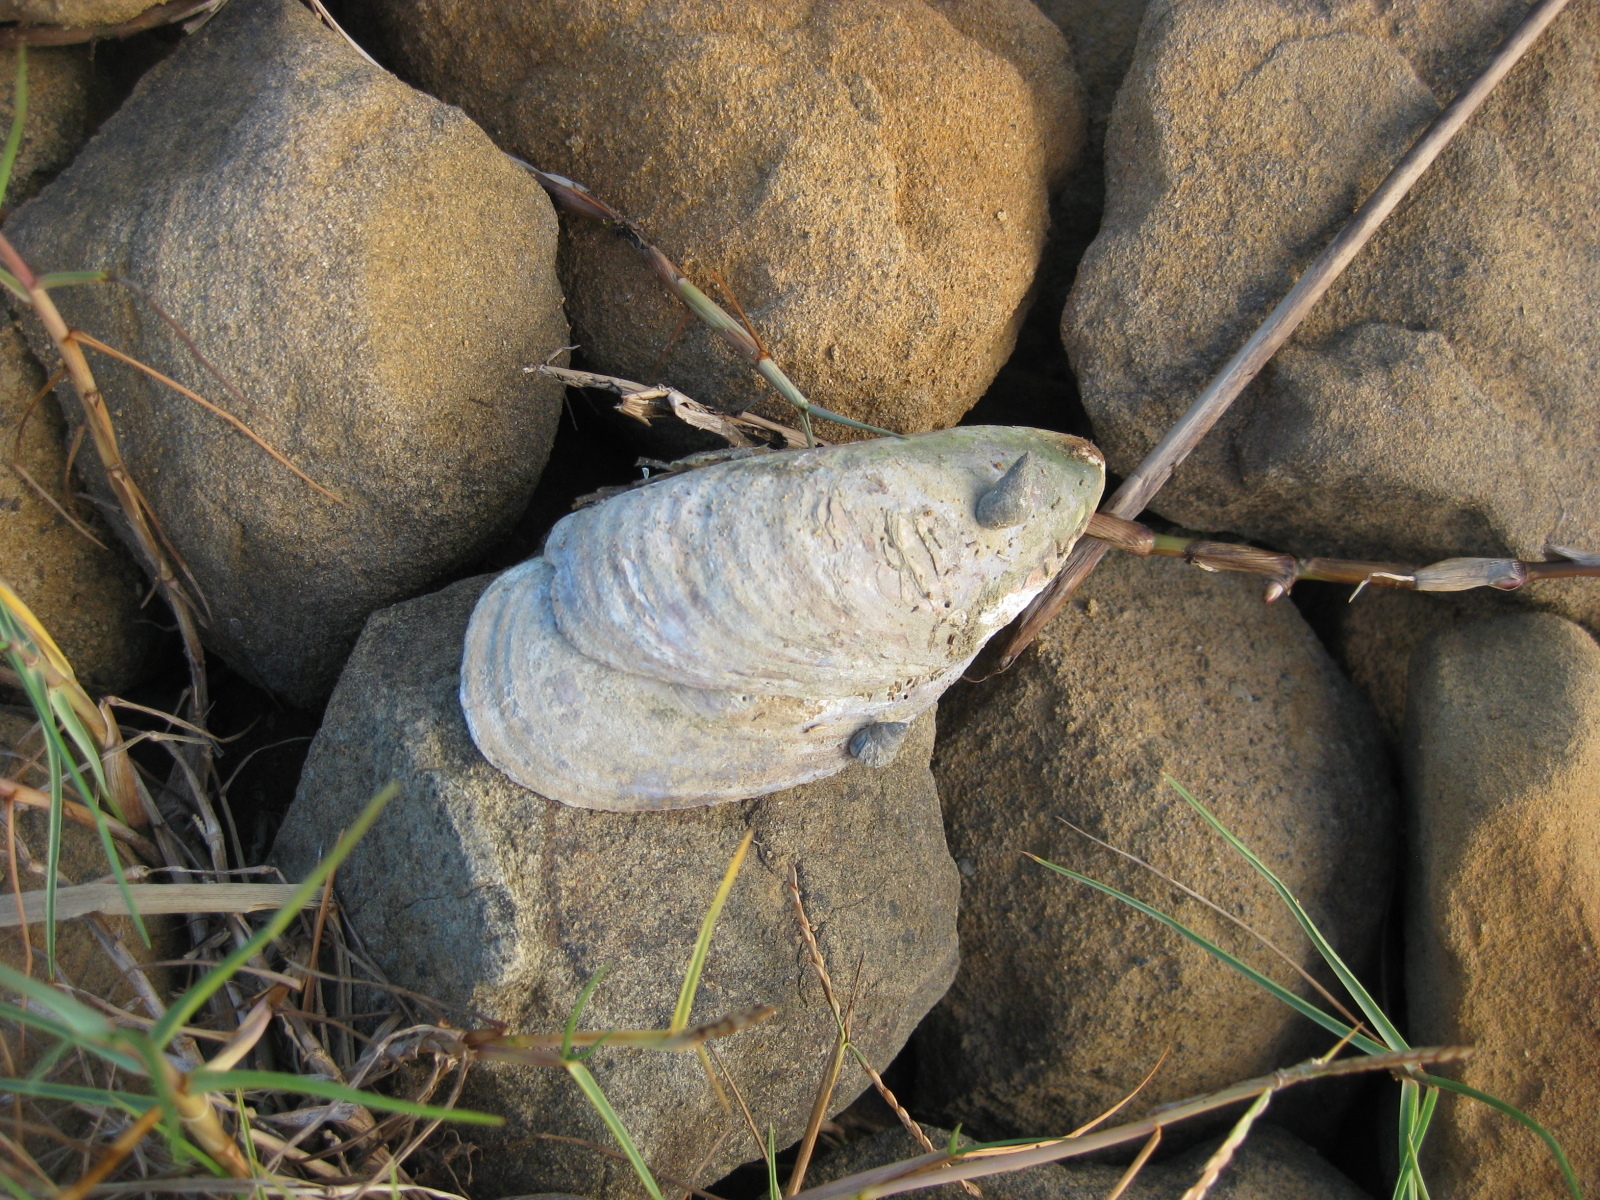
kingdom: Animalia
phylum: Mollusca
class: Bivalvia
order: Mytilida
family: Mytilidae
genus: Perna
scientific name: Perna canaliculus
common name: New zealand greenshelltm
